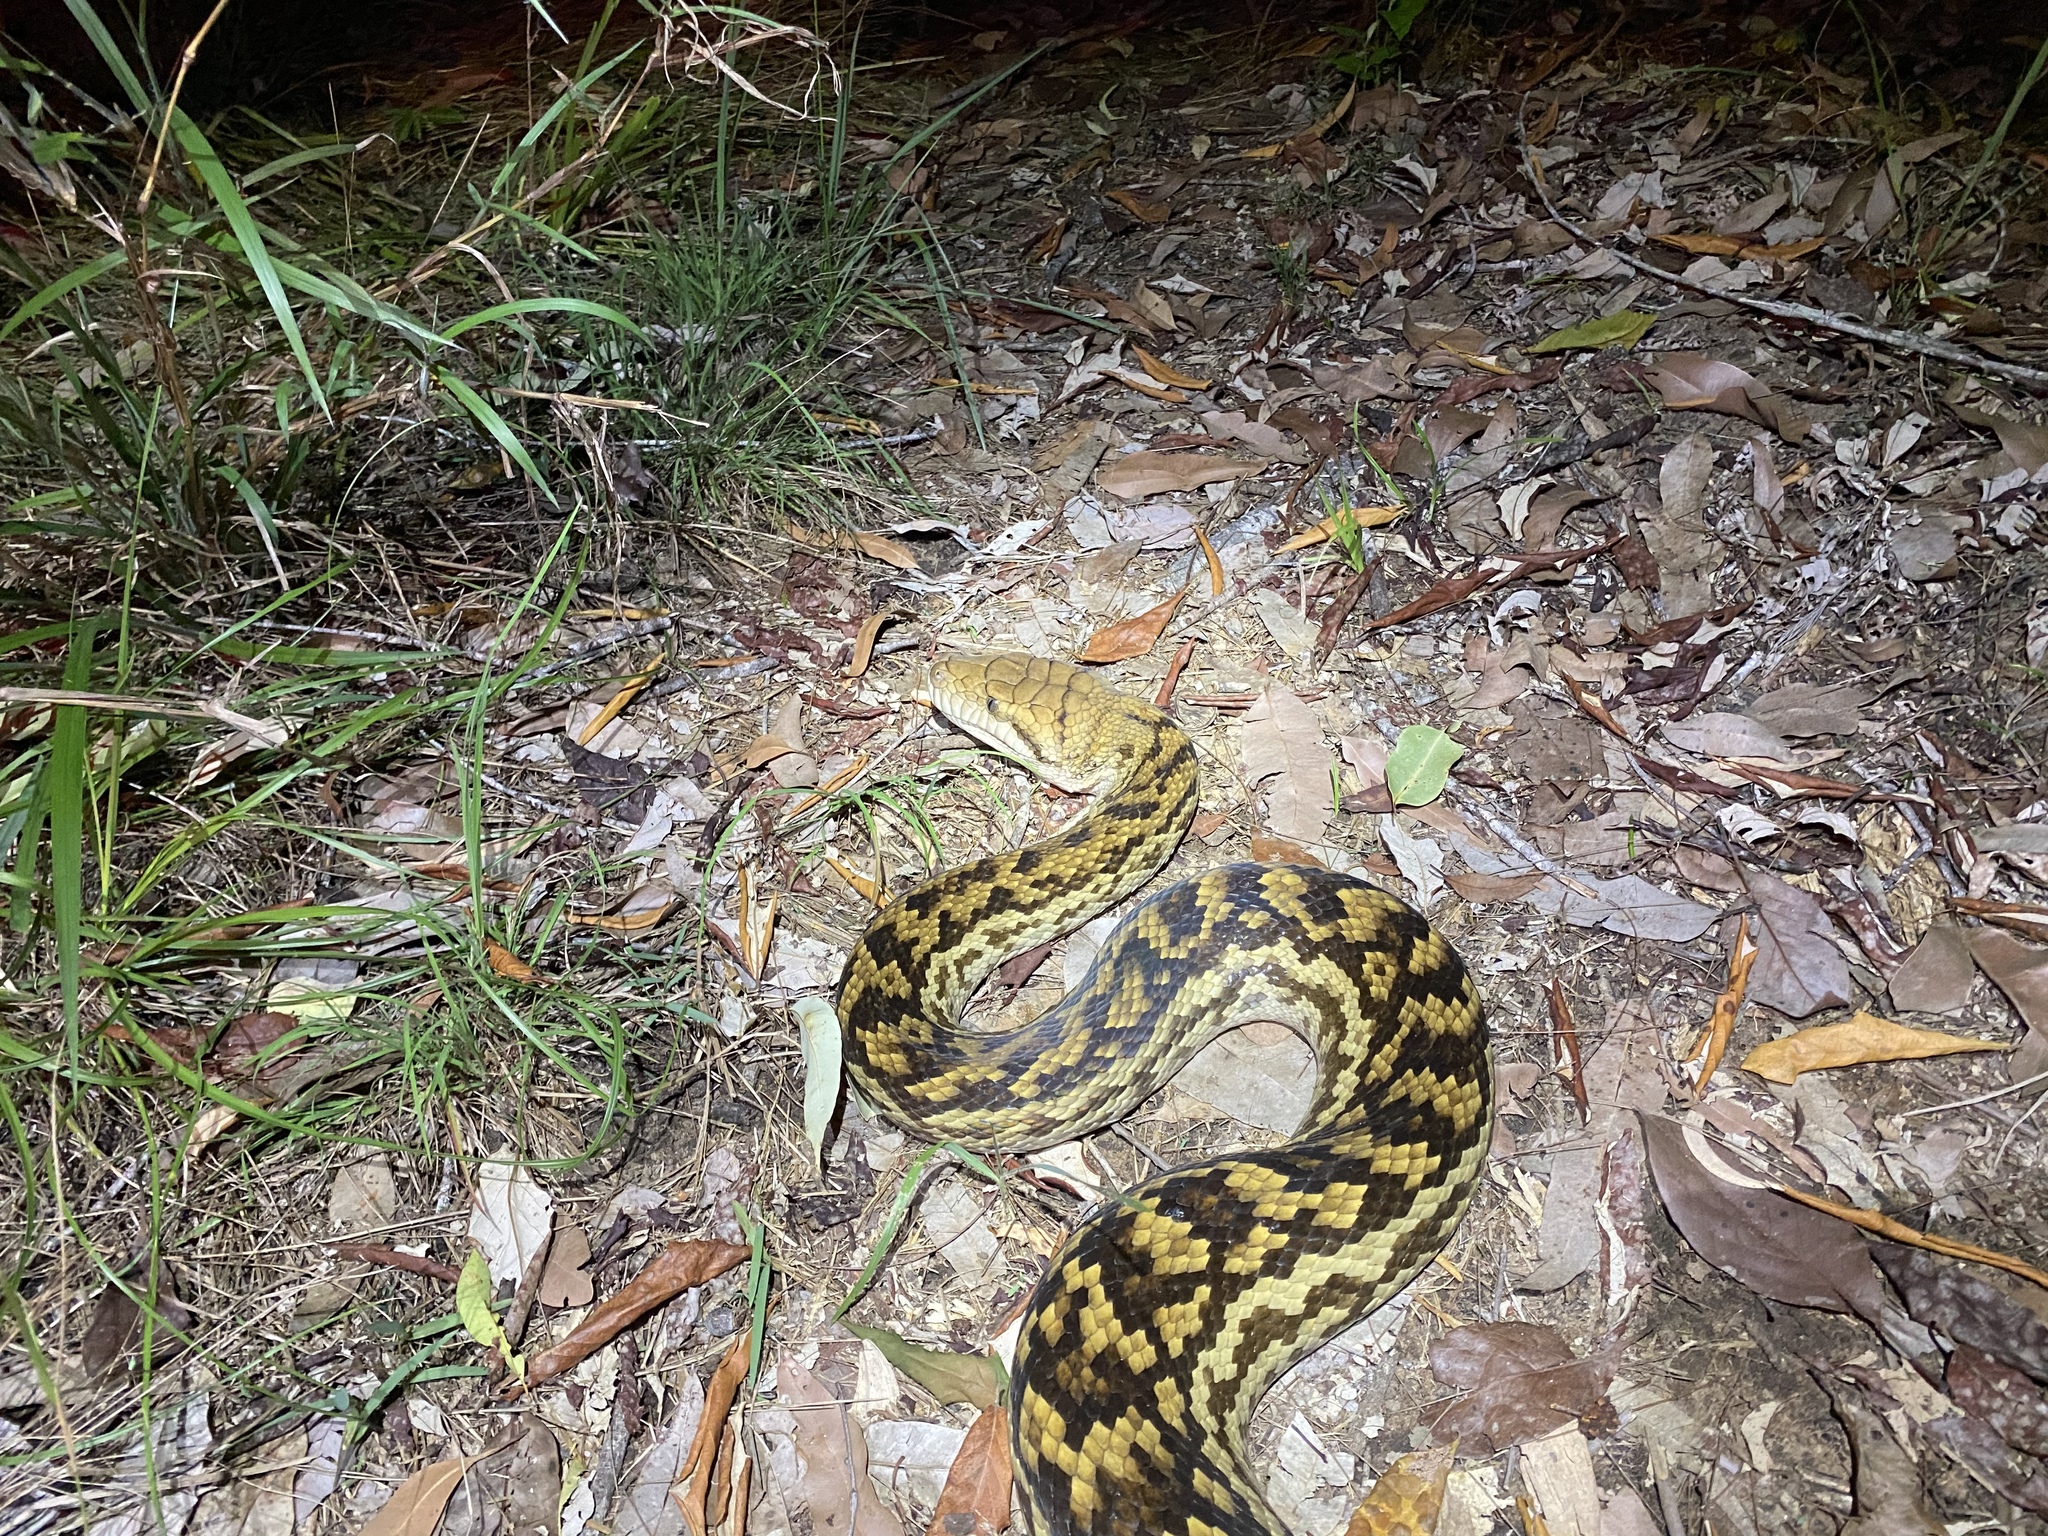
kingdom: Animalia
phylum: Chordata
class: Squamata
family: Pythonidae
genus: Simalia
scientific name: Simalia kinghorni
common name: Scrub python
